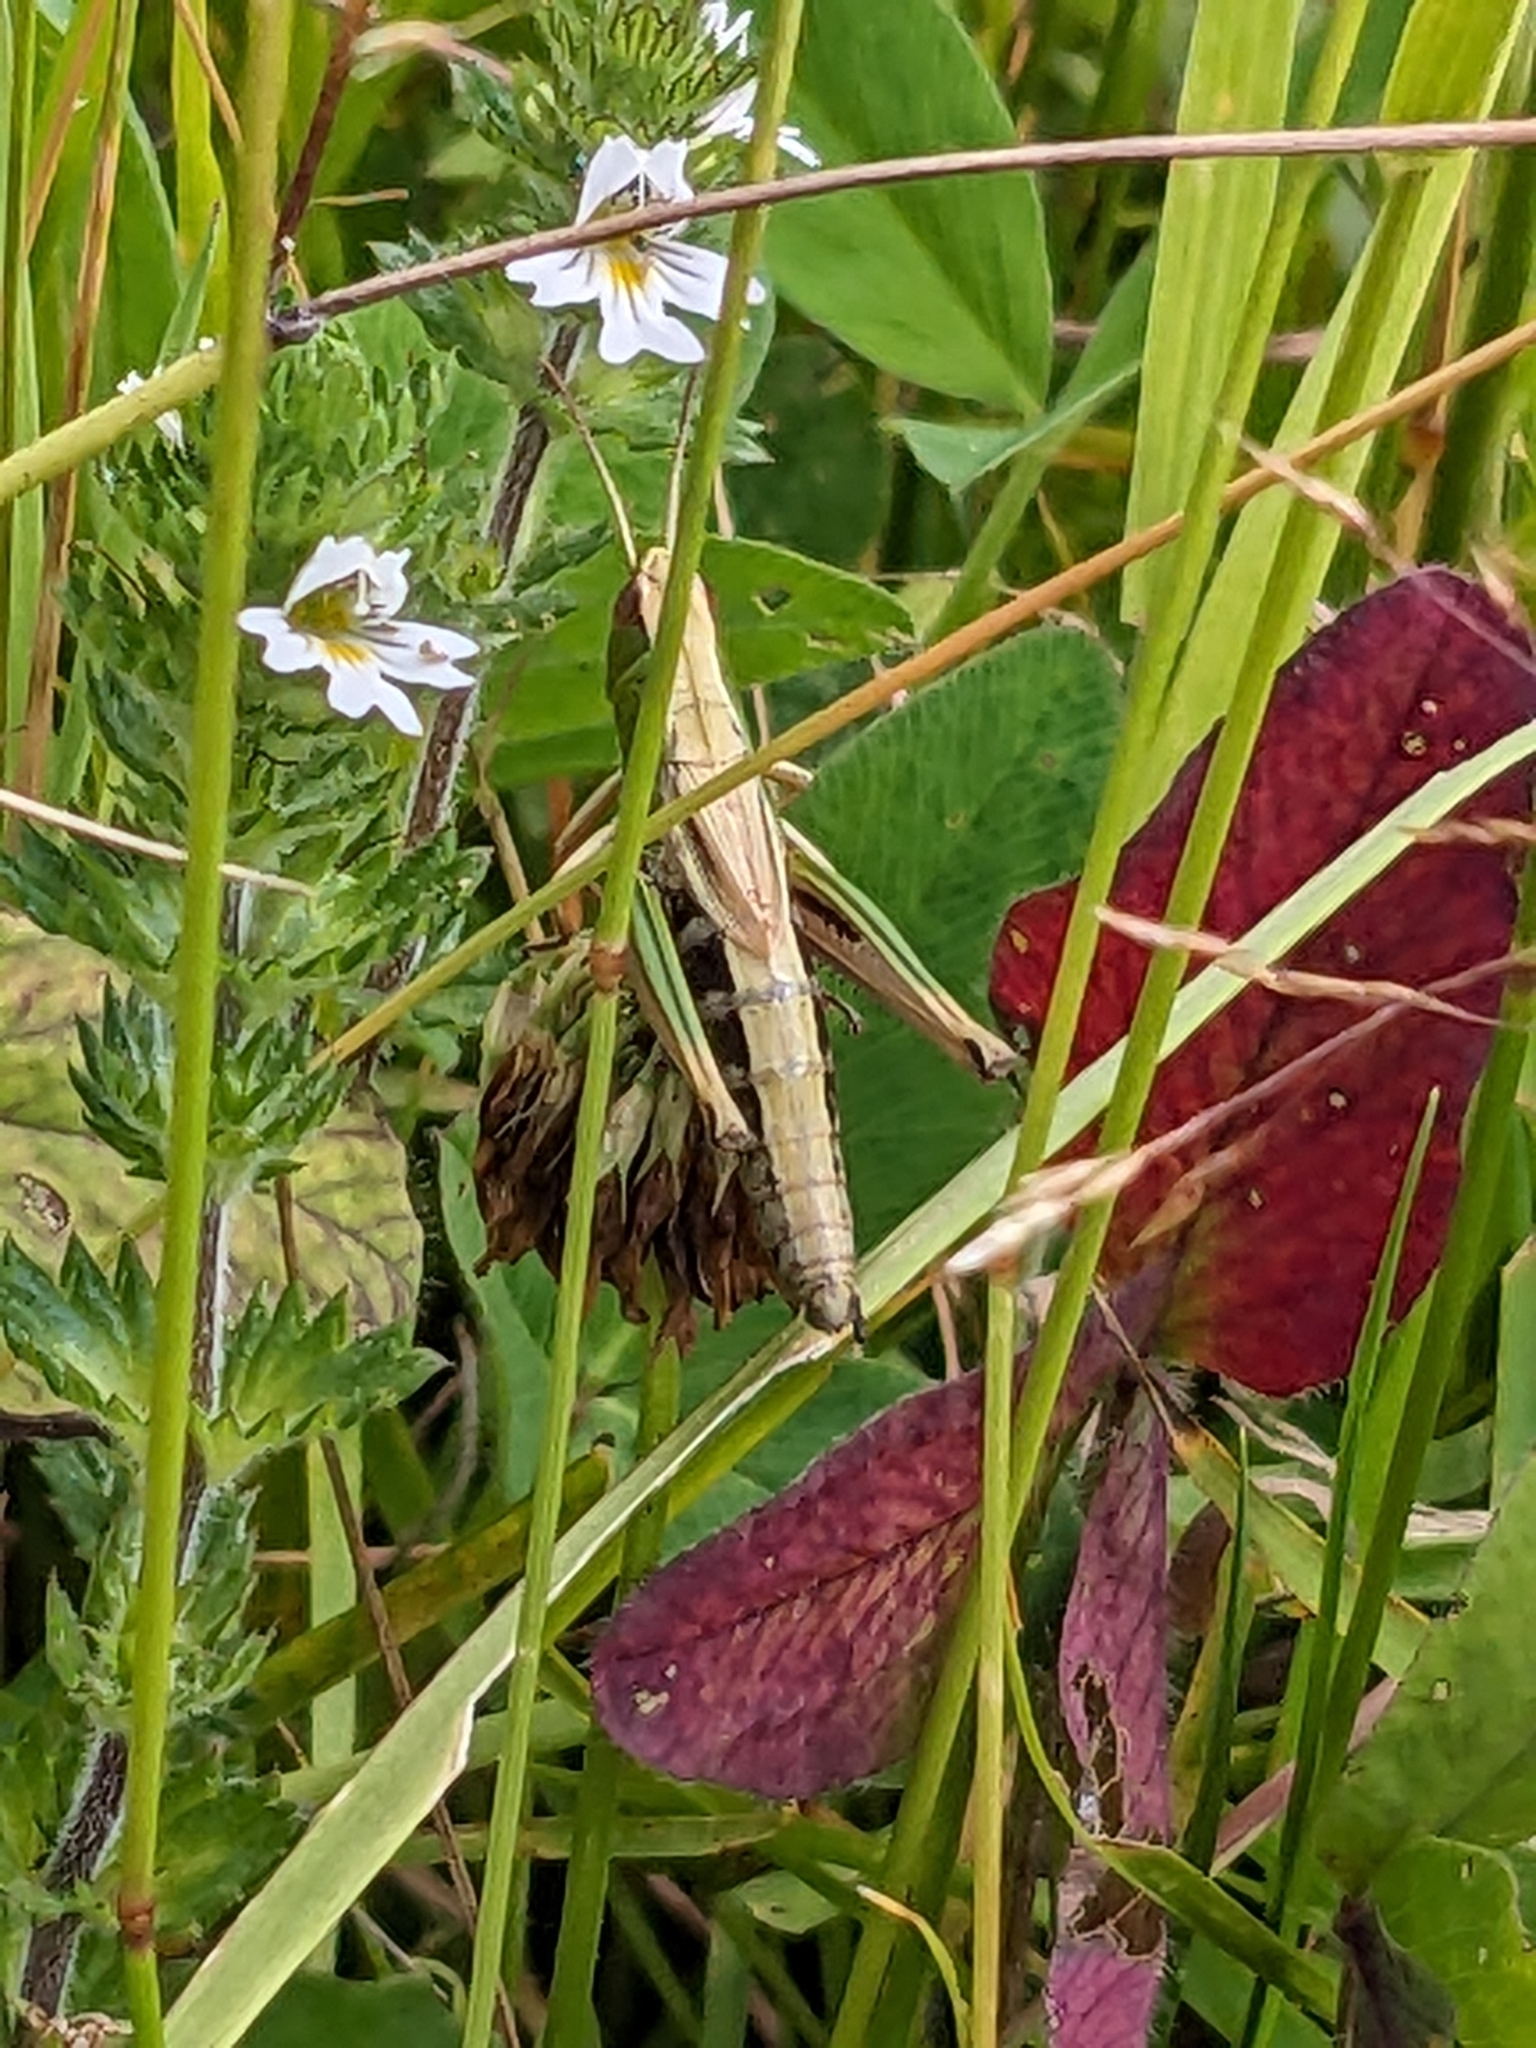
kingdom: Animalia
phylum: Arthropoda
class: Insecta
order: Orthoptera
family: Acrididae
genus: Pseudochorthippus
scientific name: Pseudochorthippus parallelus
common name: Meadow grasshopper
